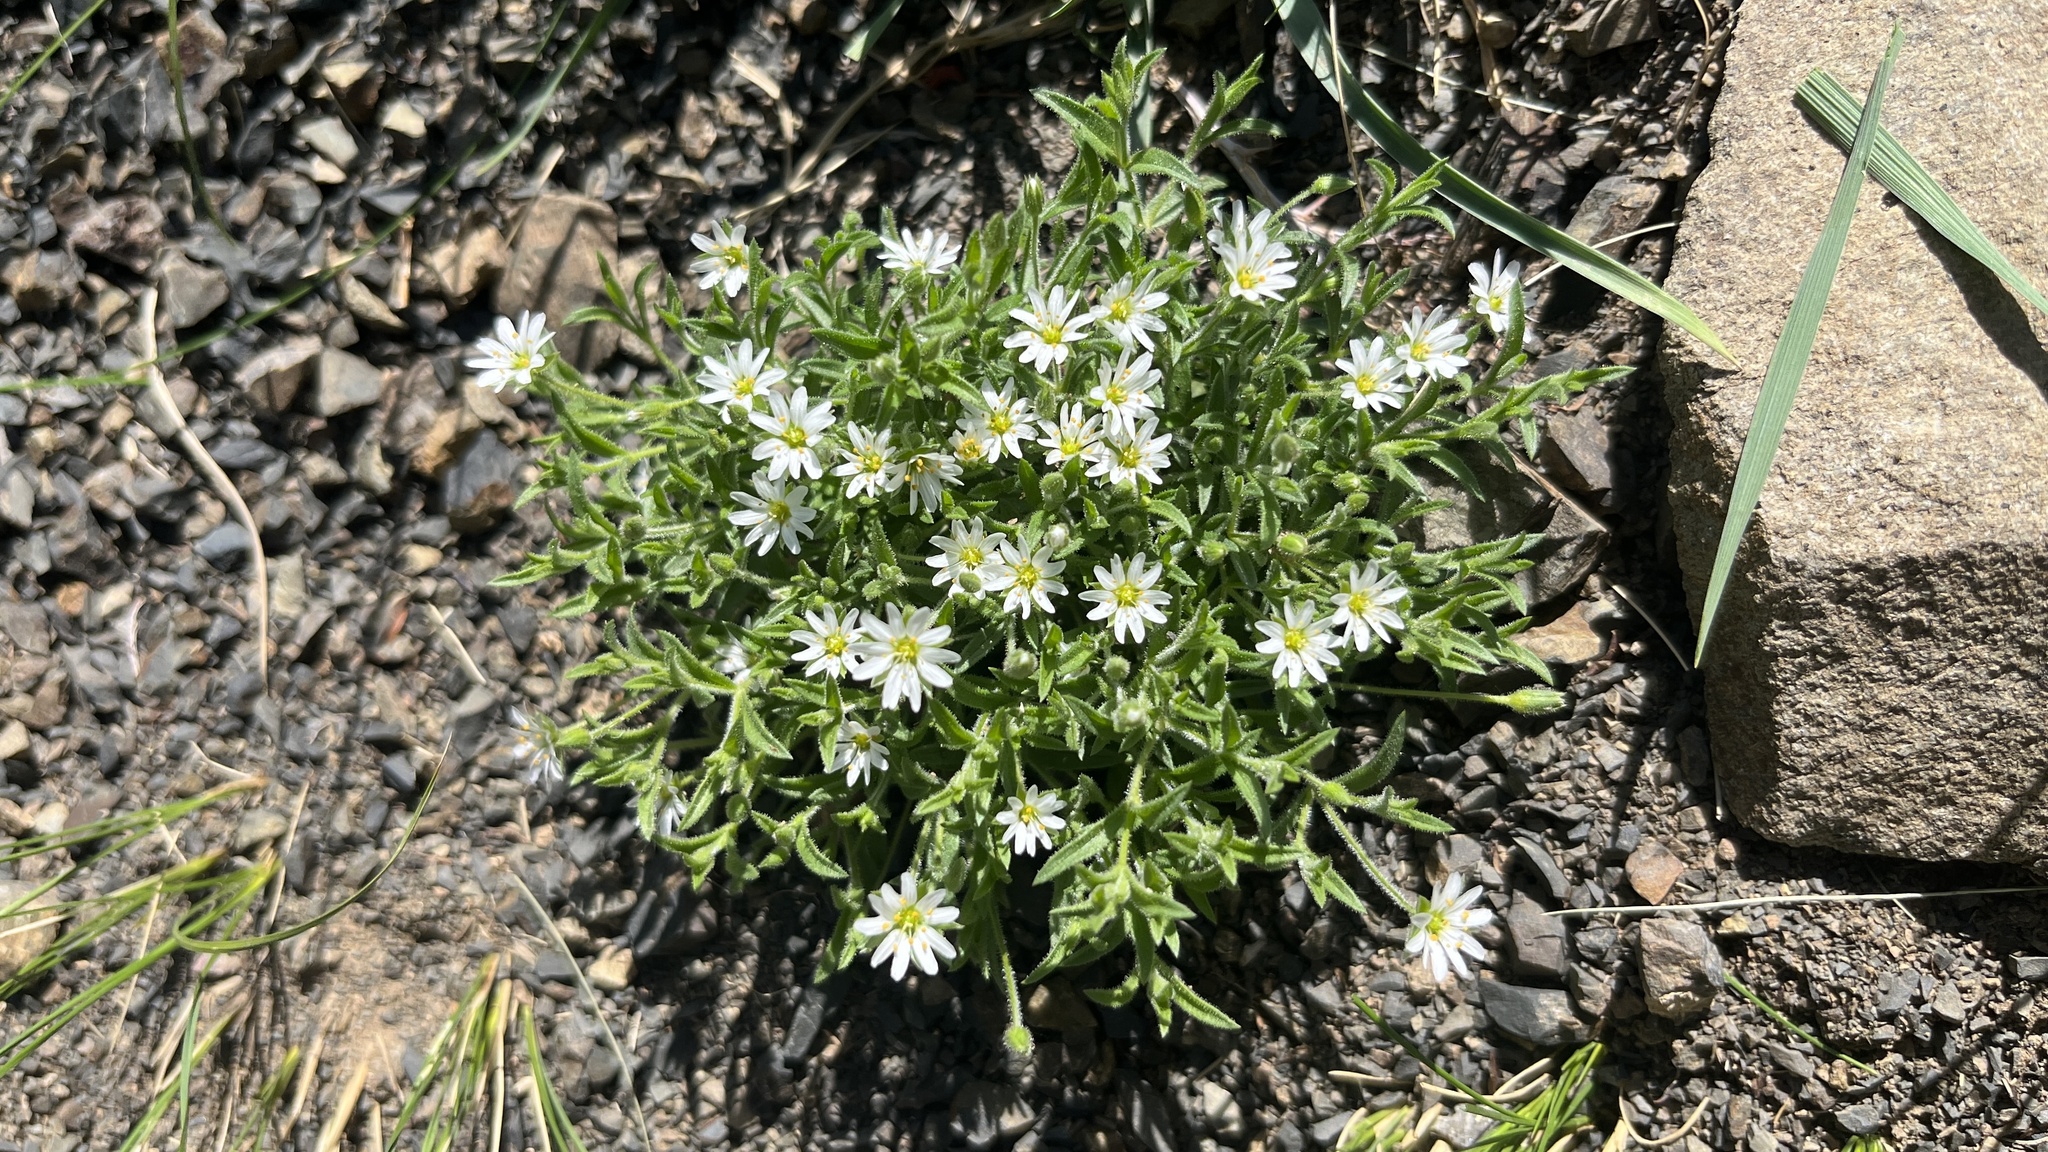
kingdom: Plantae
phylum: Tracheophyta
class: Magnoliopsida
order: Caryophyllales
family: Caryophyllaceae
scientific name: Caryophyllaceae
